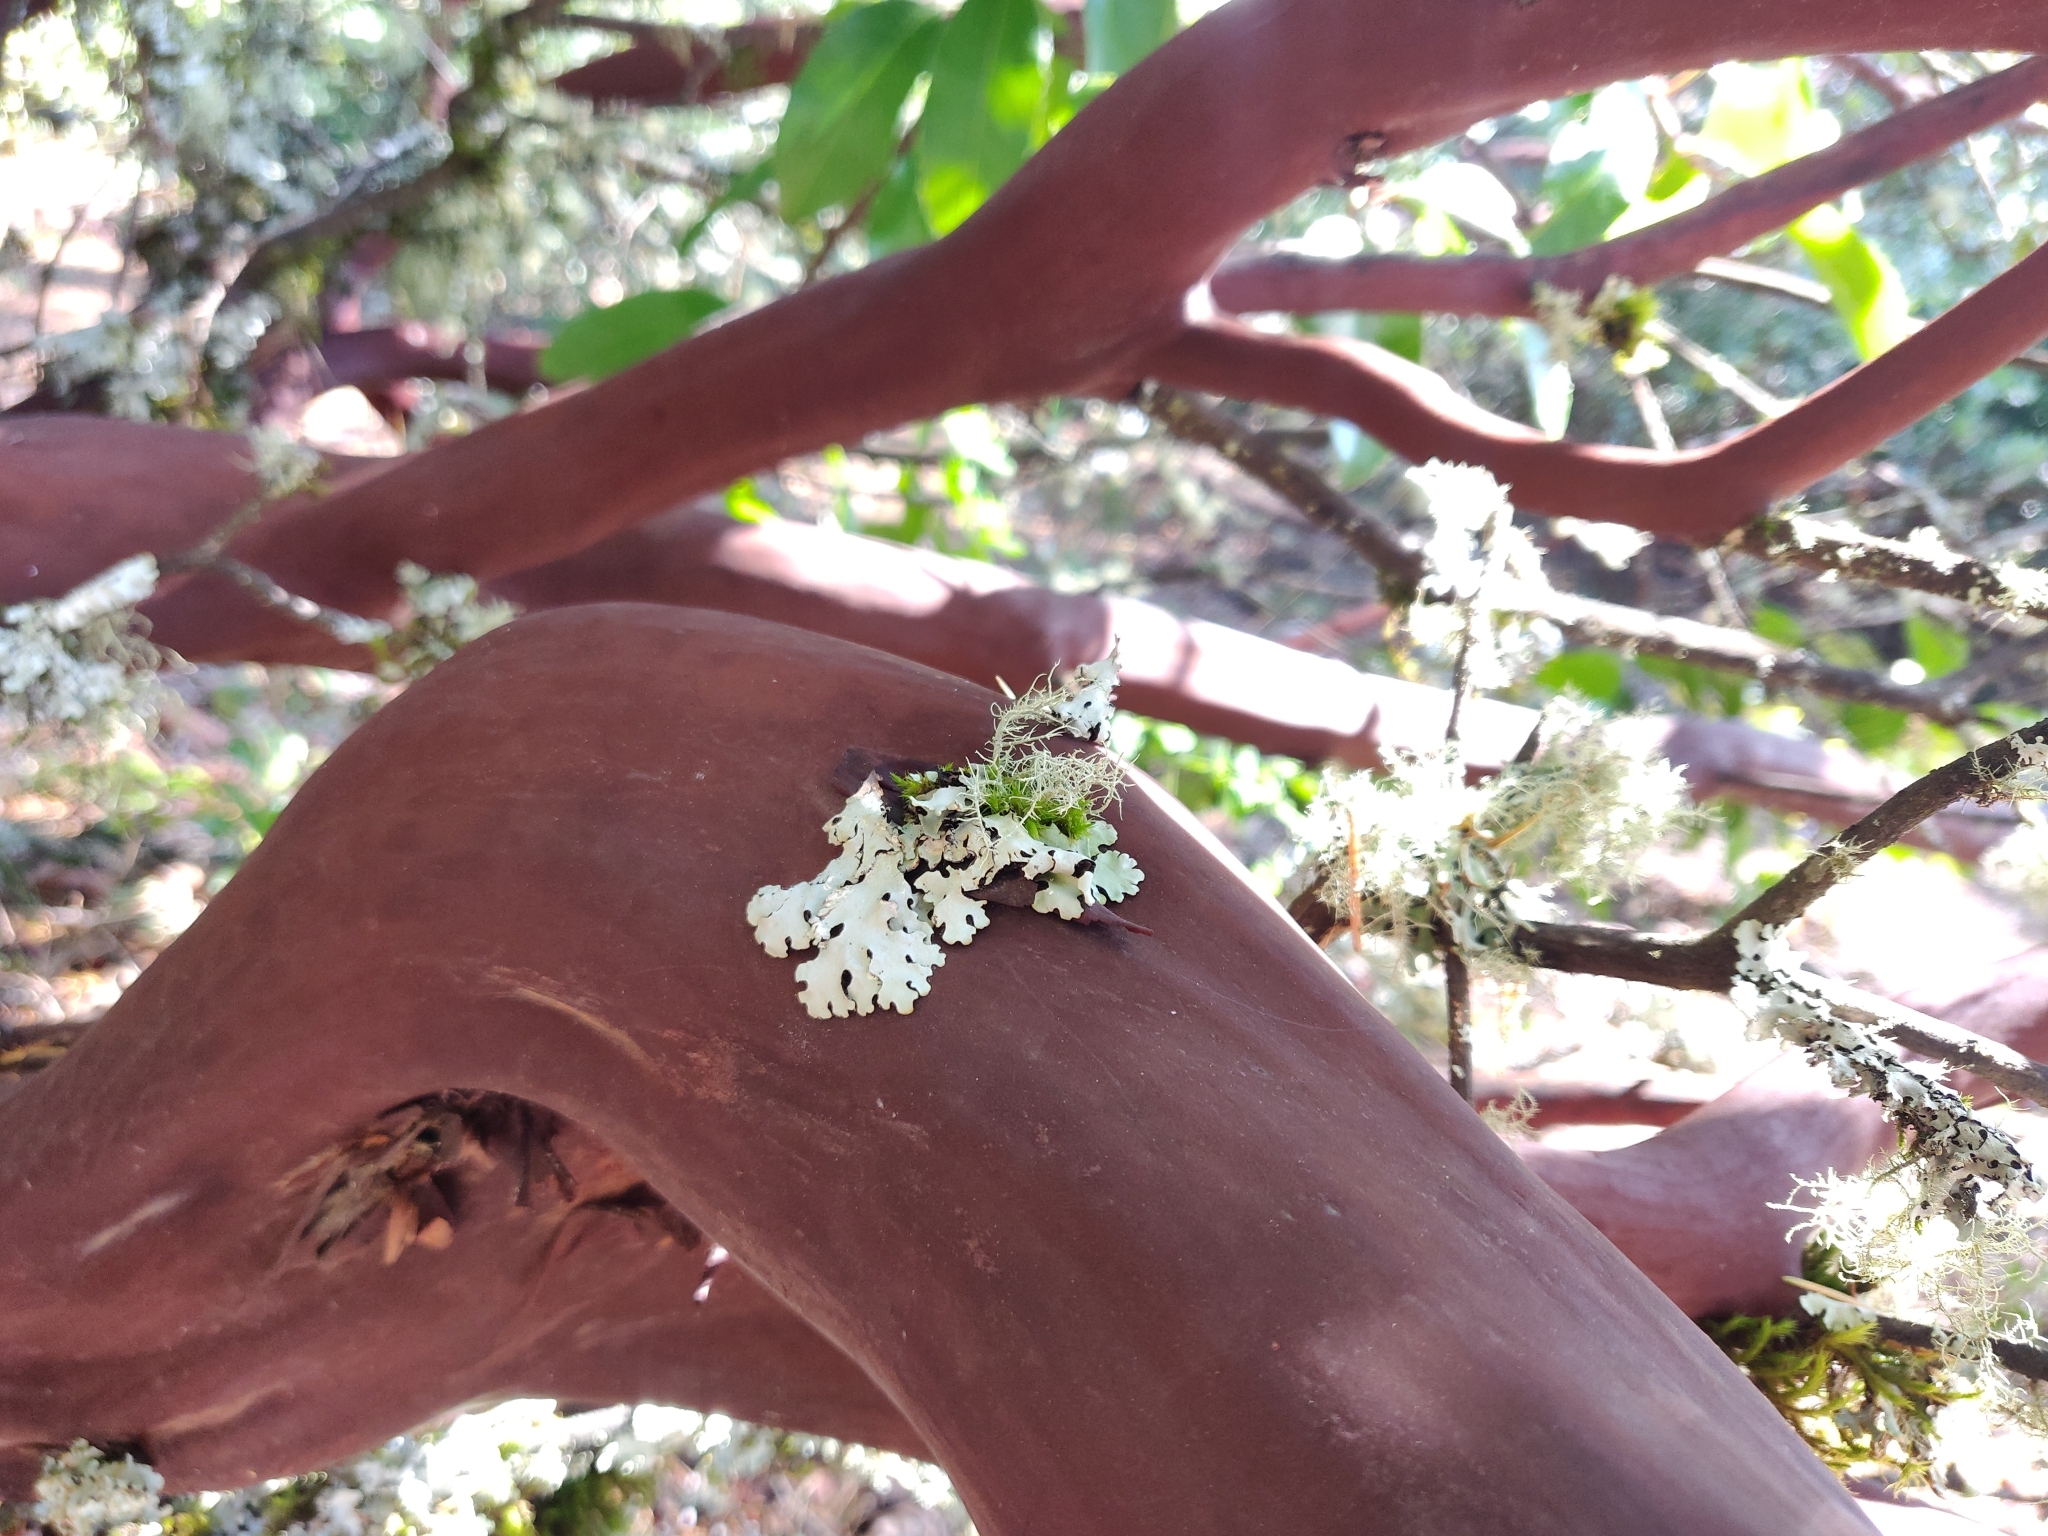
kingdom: Plantae
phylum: Tracheophyta
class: Magnoliopsida
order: Ericales
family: Ericaceae
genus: Arctostaphylos
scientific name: Arctostaphylos regismontana
